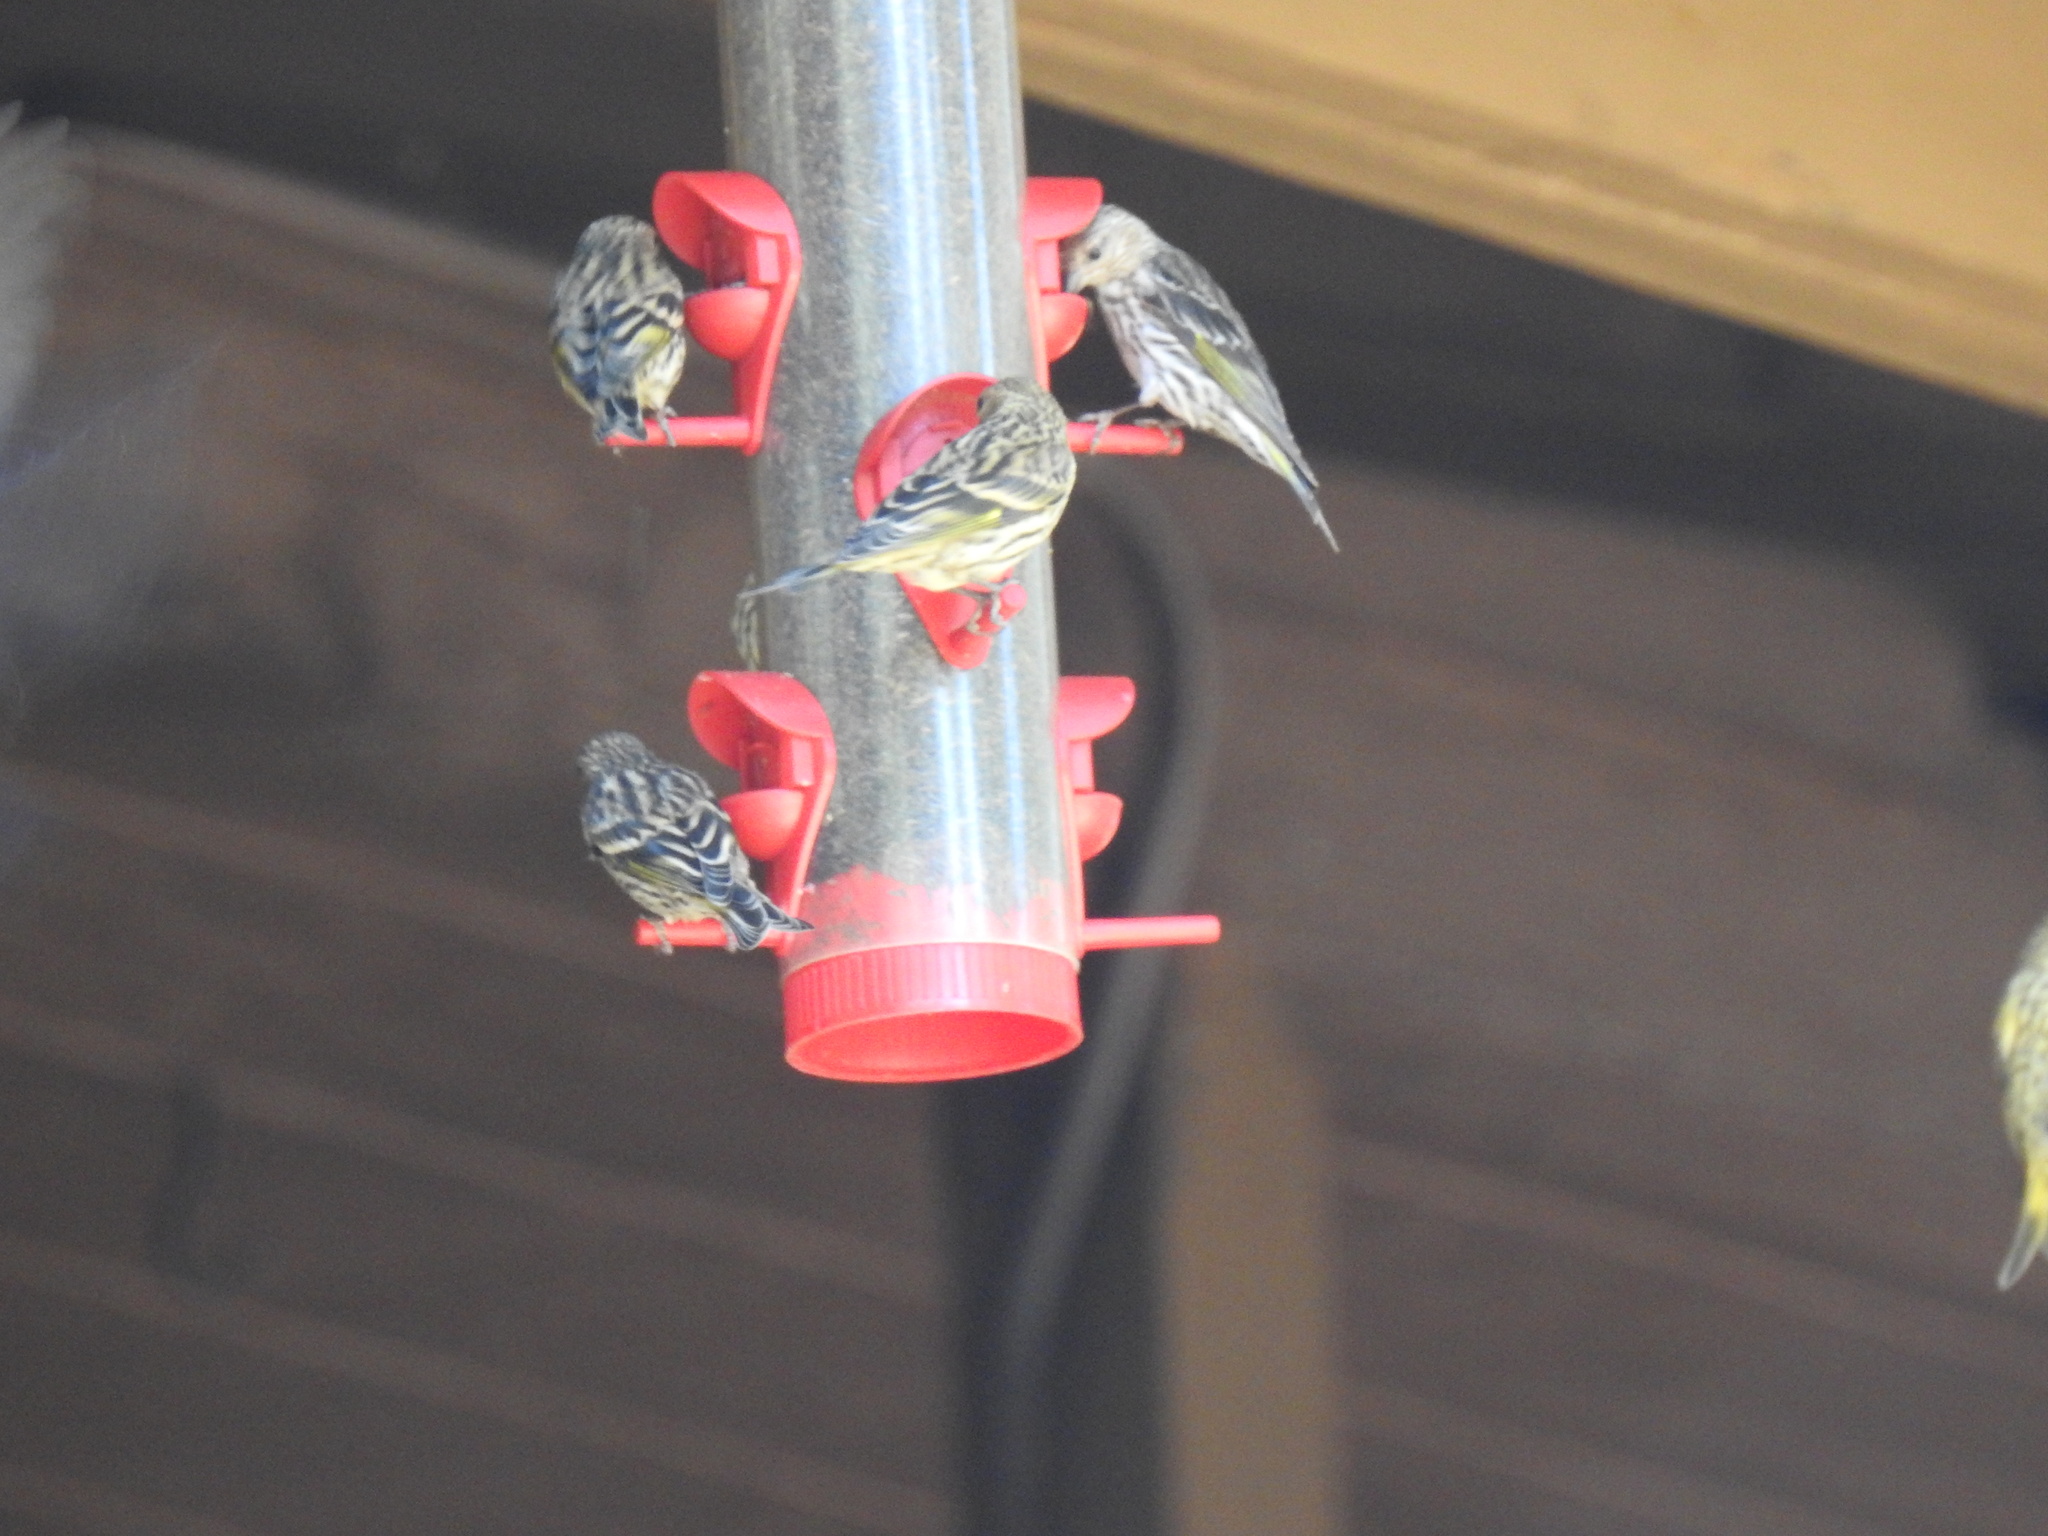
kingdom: Animalia
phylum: Chordata
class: Aves
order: Passeriformes
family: Fringillidae
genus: Spinus
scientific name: Spinus pinus
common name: Pine siskin
